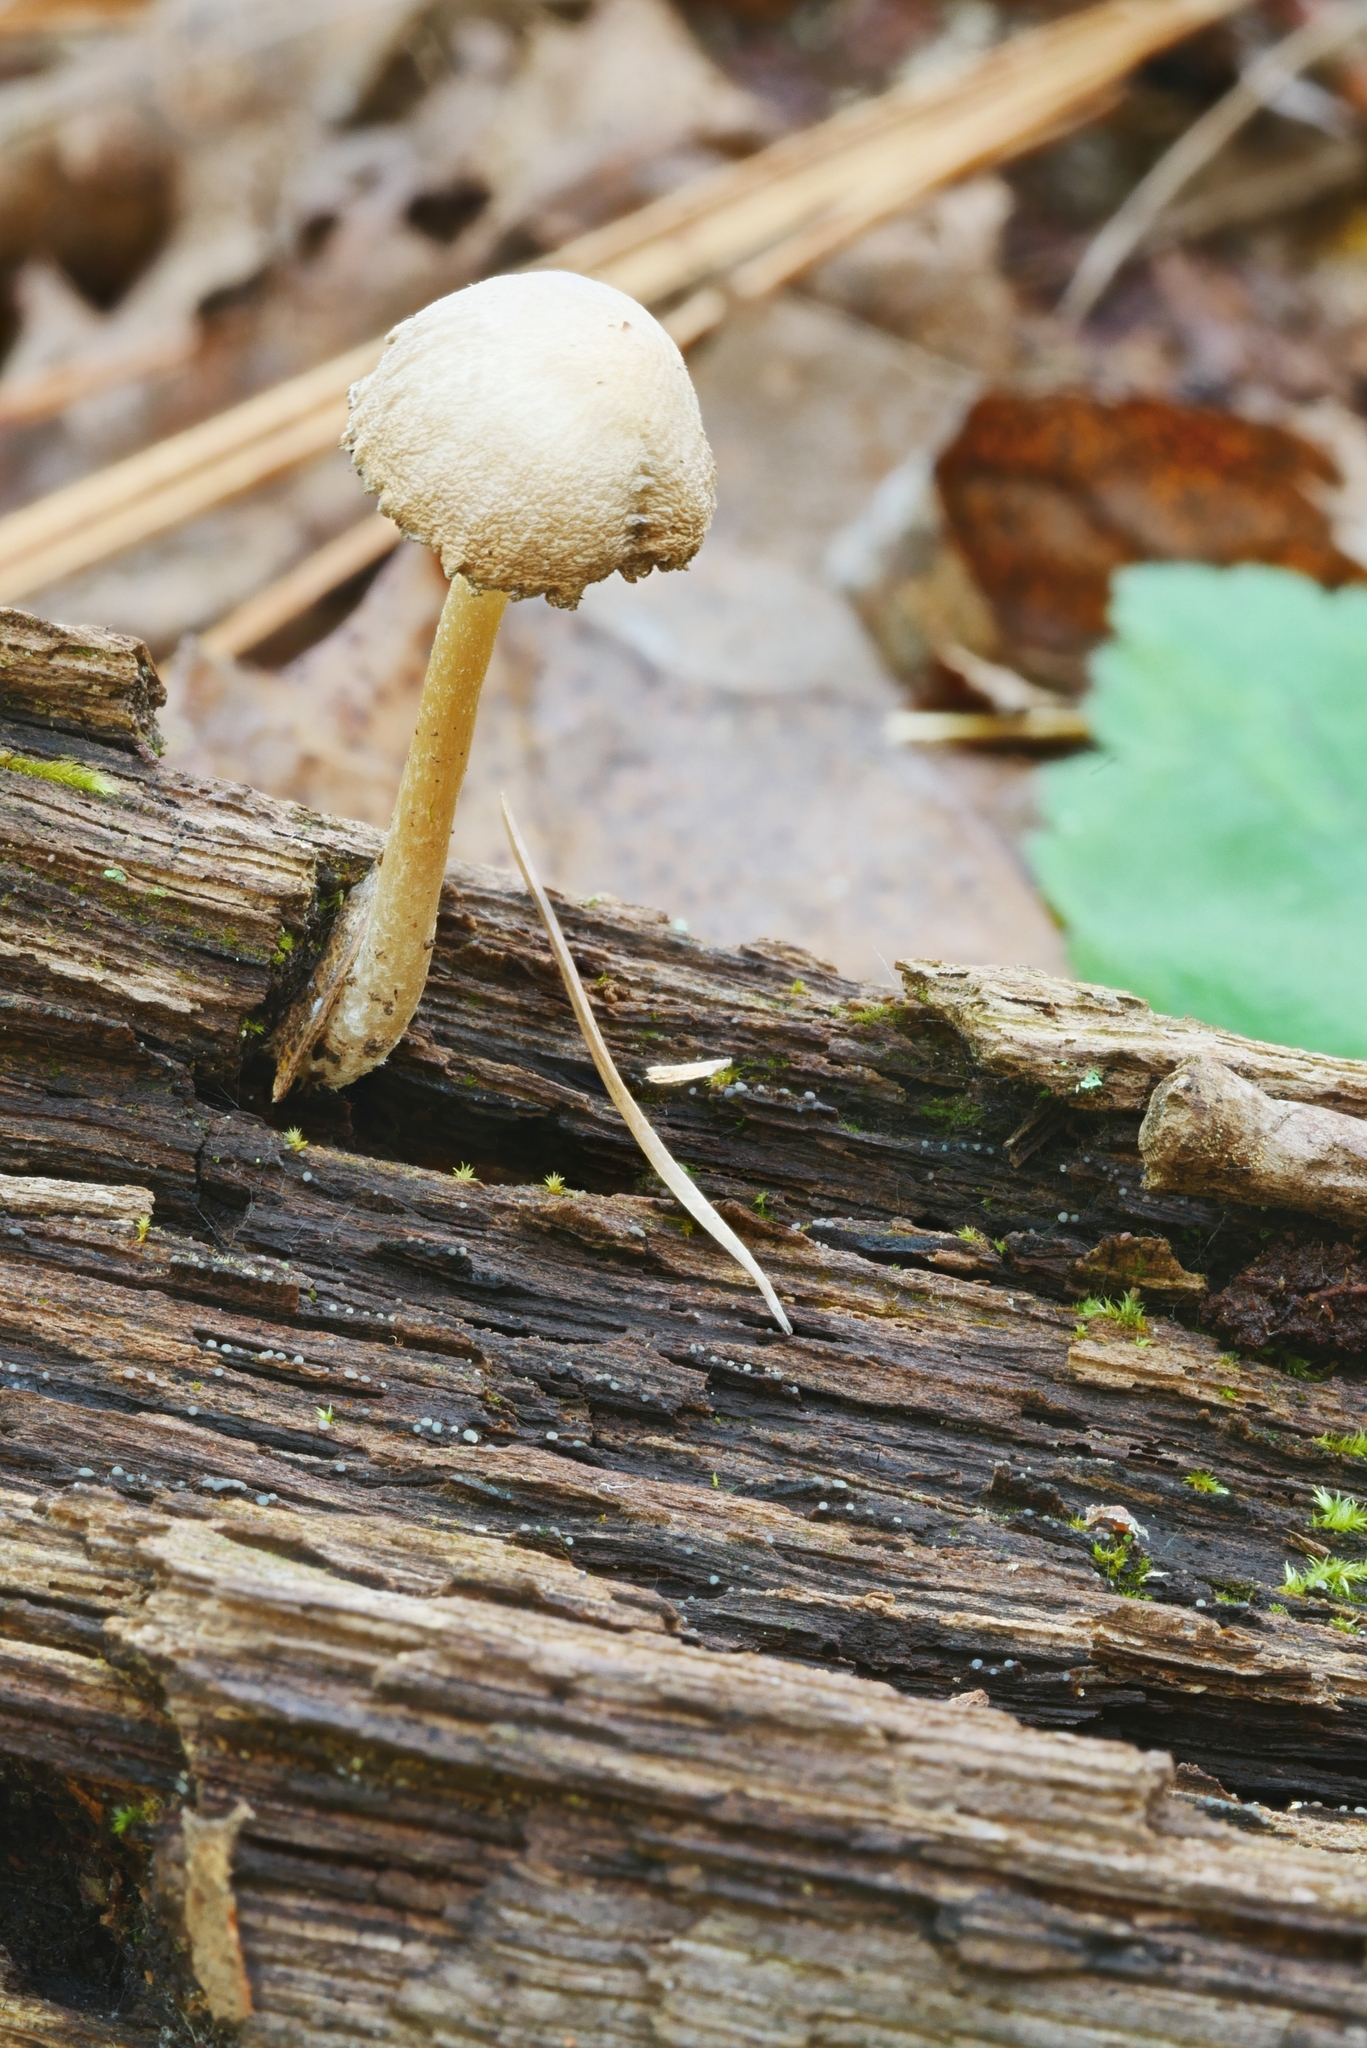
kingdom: Fungi
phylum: Basidiomycota
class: Agaricomycetes
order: Agaricales
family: Psathyrellaceae
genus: Psathyrella
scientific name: Psathyrella impexa
